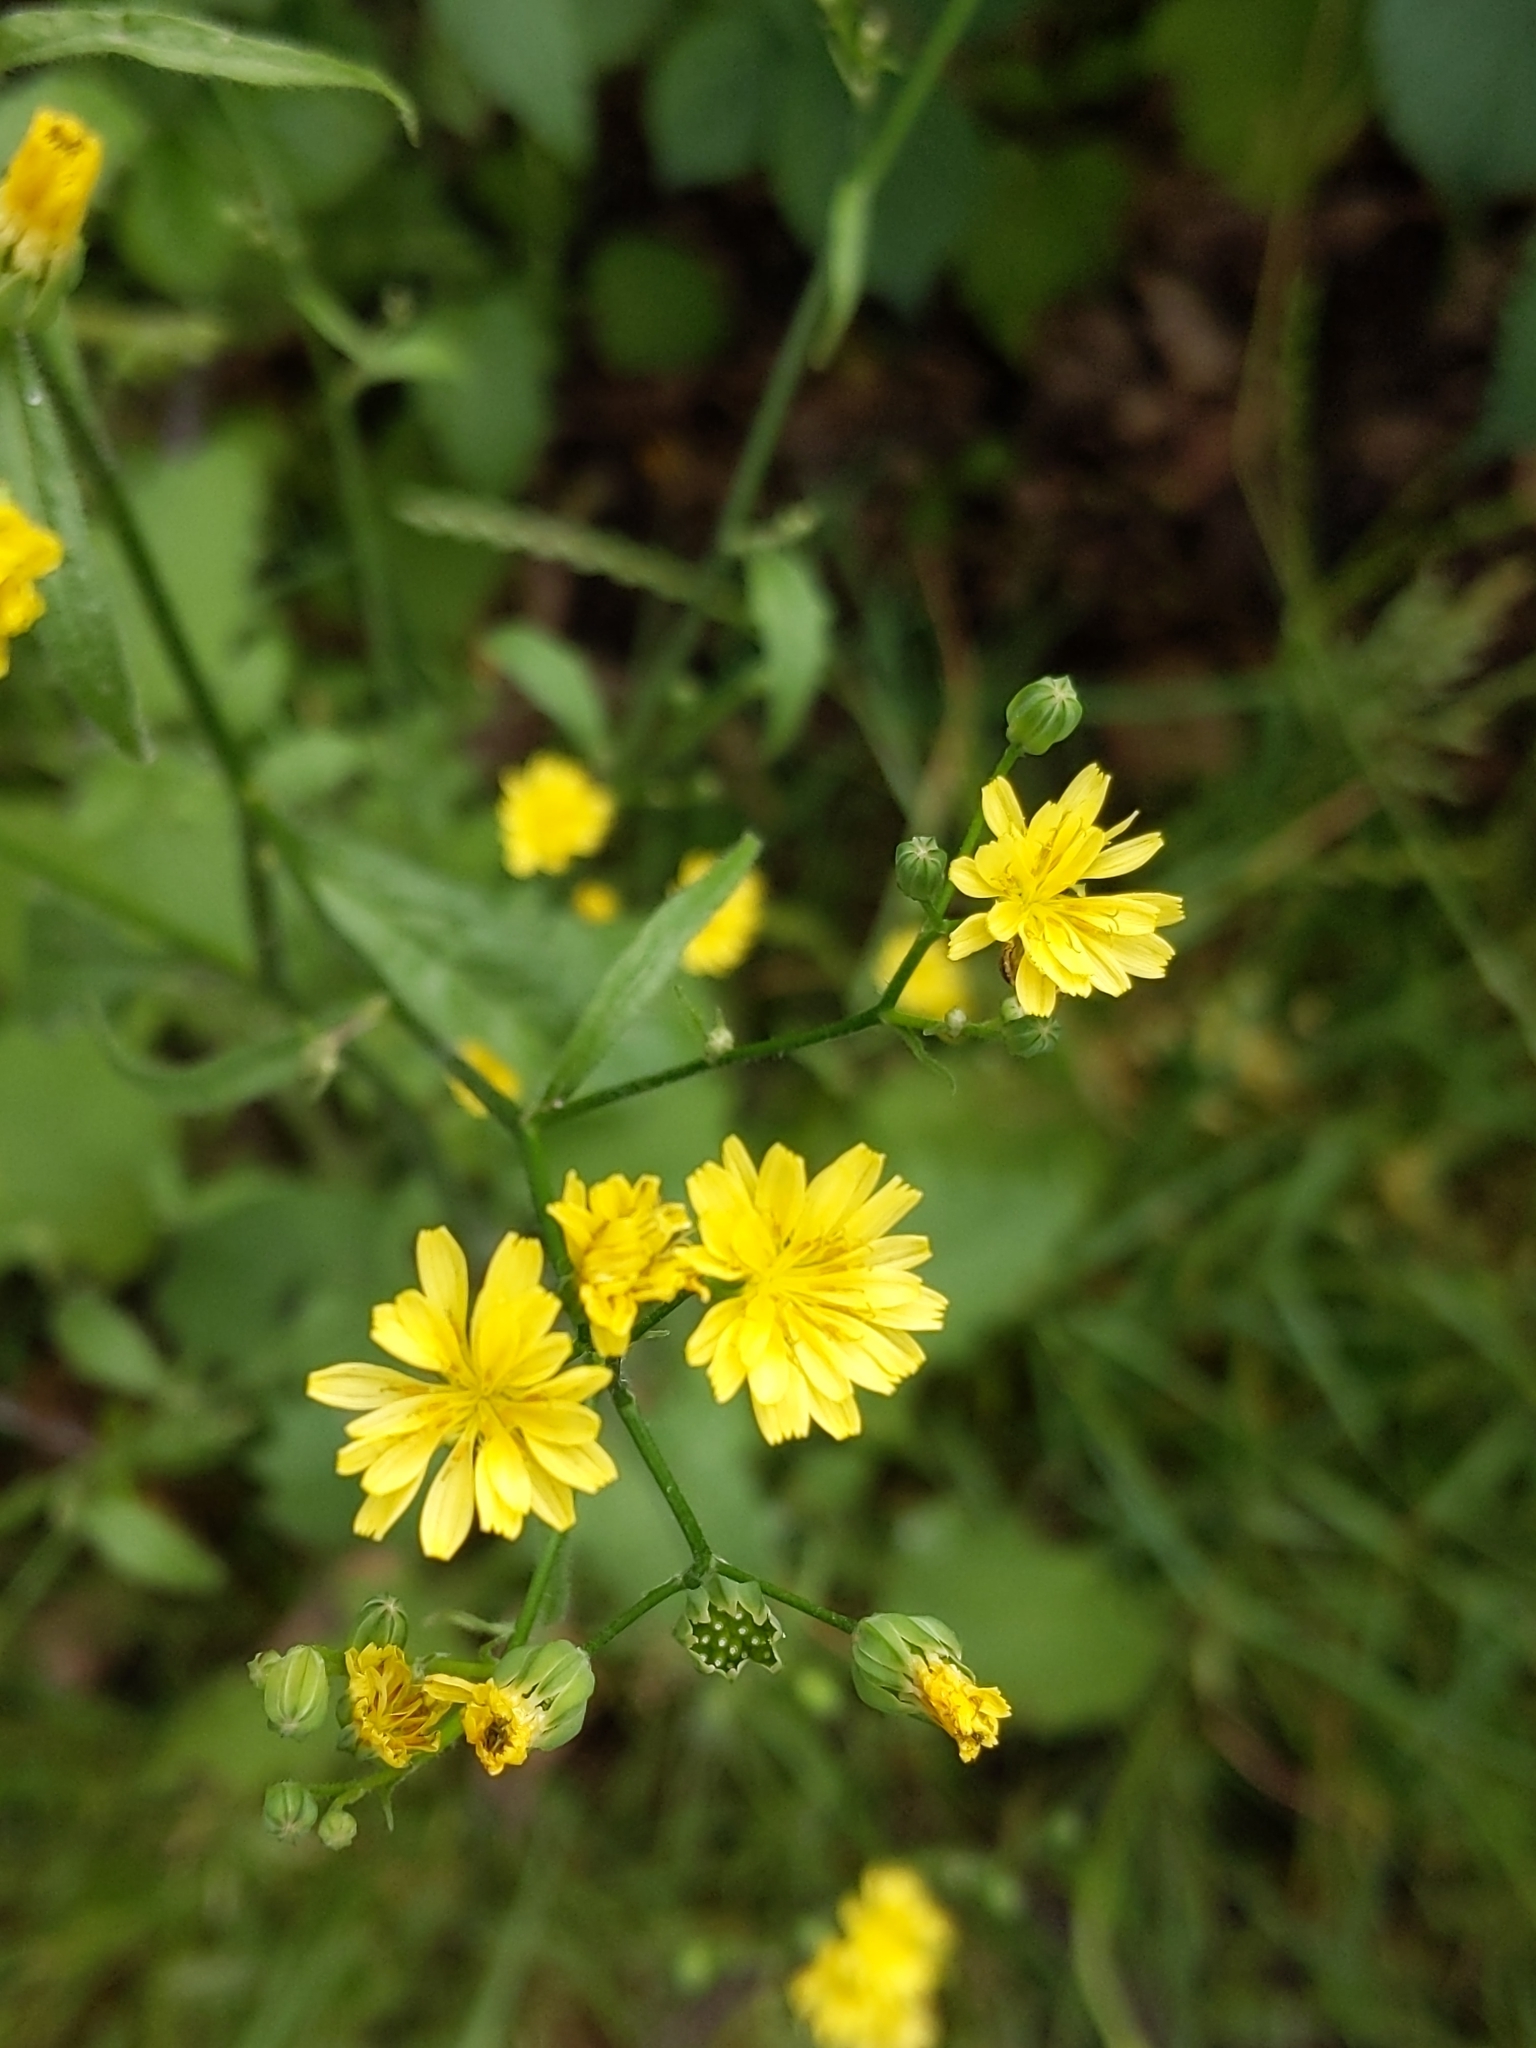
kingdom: Plantae
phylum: Tracheophyta
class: Magnoliopsida
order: Asterales
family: Asteraceae
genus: Lapsana
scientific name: Lapsana communis
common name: Nipplewort
